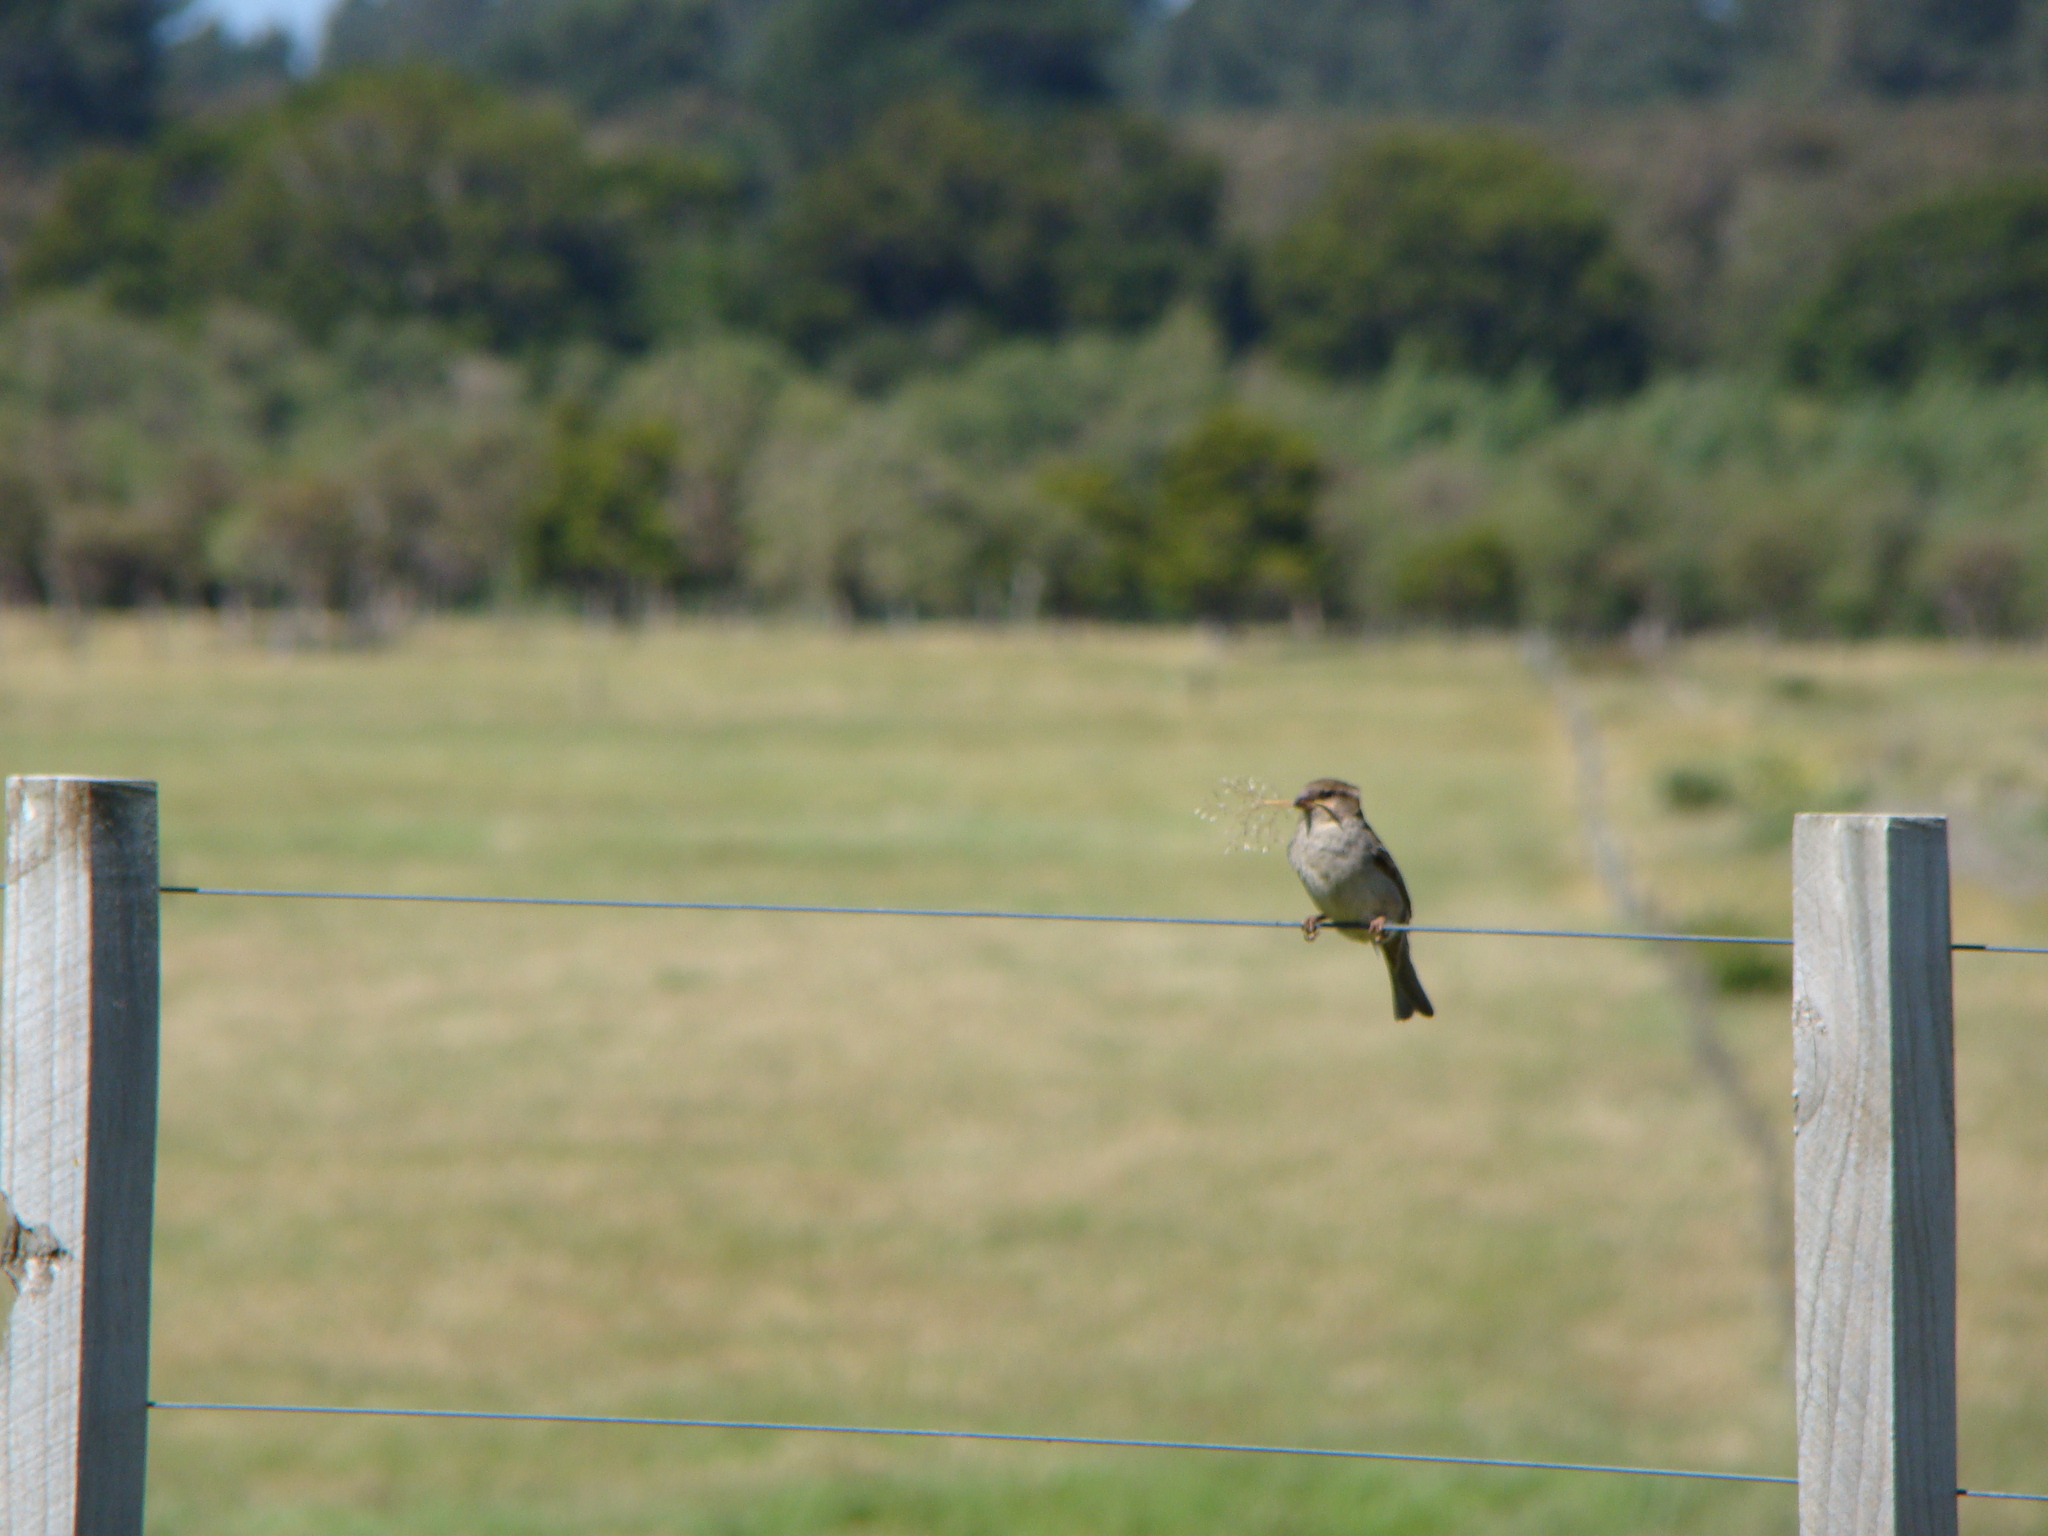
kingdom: Animalia
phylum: Chordata
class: Aves
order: Passeriformes
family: Passeridae
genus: Passer
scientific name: Passer domesticus
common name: House sparrow
